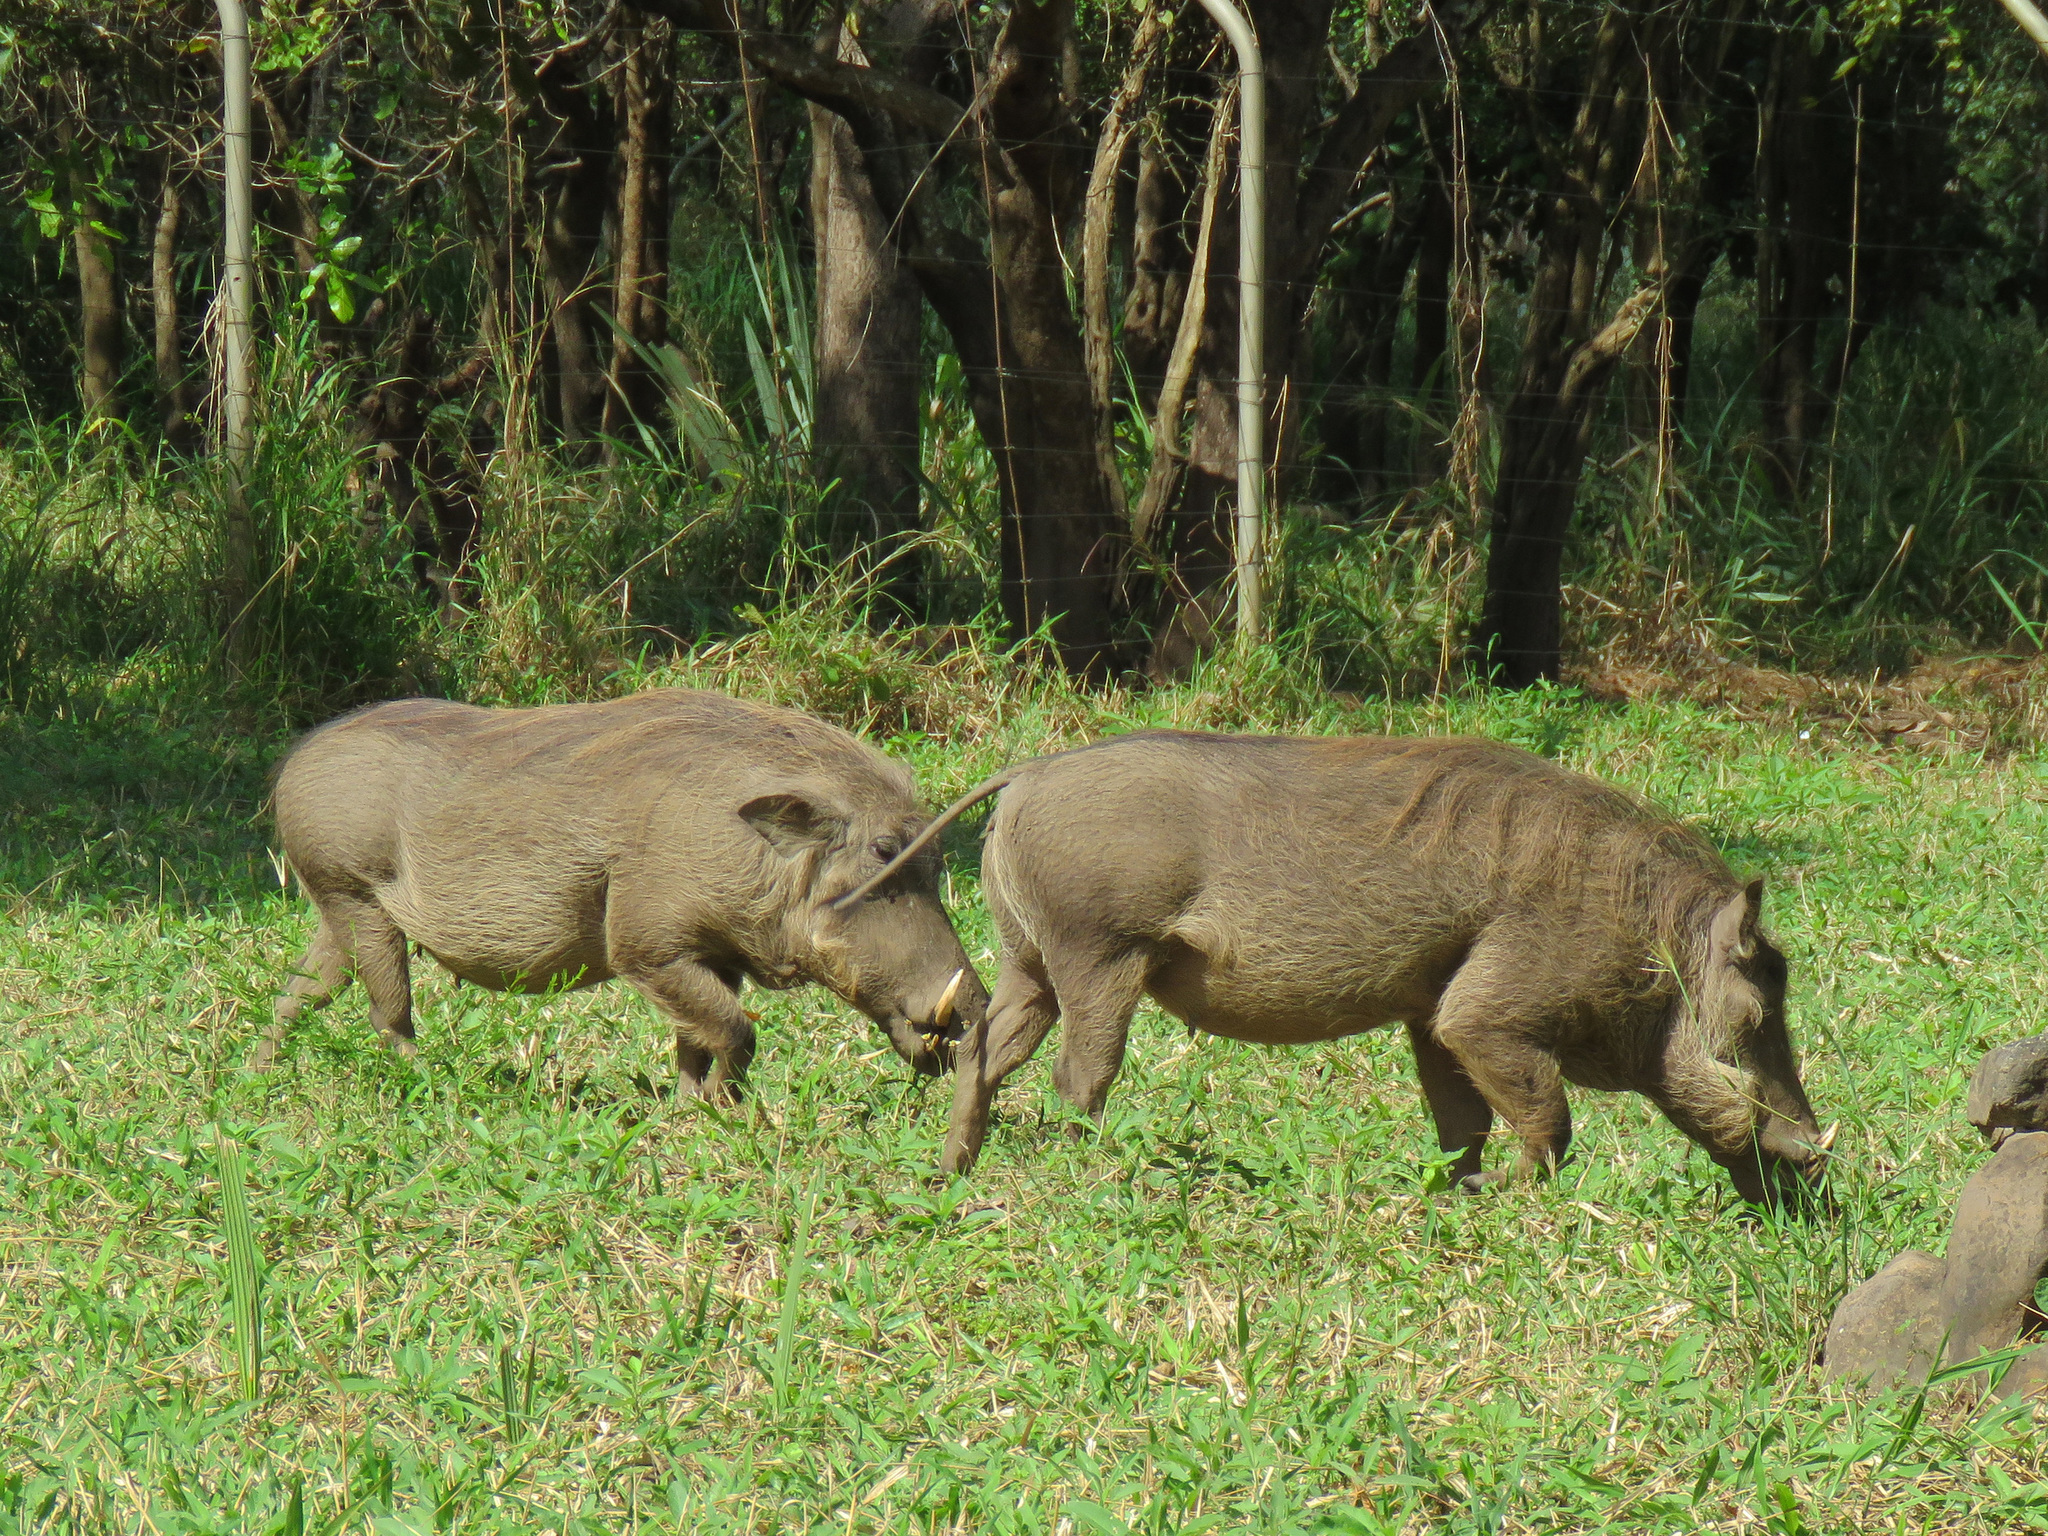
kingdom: Animalia
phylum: Chordata
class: Mammalia
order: Artiodactyla
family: Suidae
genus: Phacochoerus
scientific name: Phacochoerus africanus
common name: Common warthog
